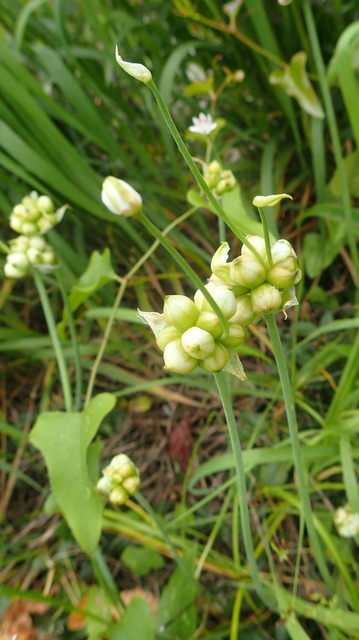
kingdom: Plantae
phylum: Tracheophyta
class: Liliopsida
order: Asparagales
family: Amaryllidaceae
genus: Allium
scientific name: Allium canadense
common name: Meadow garlic
